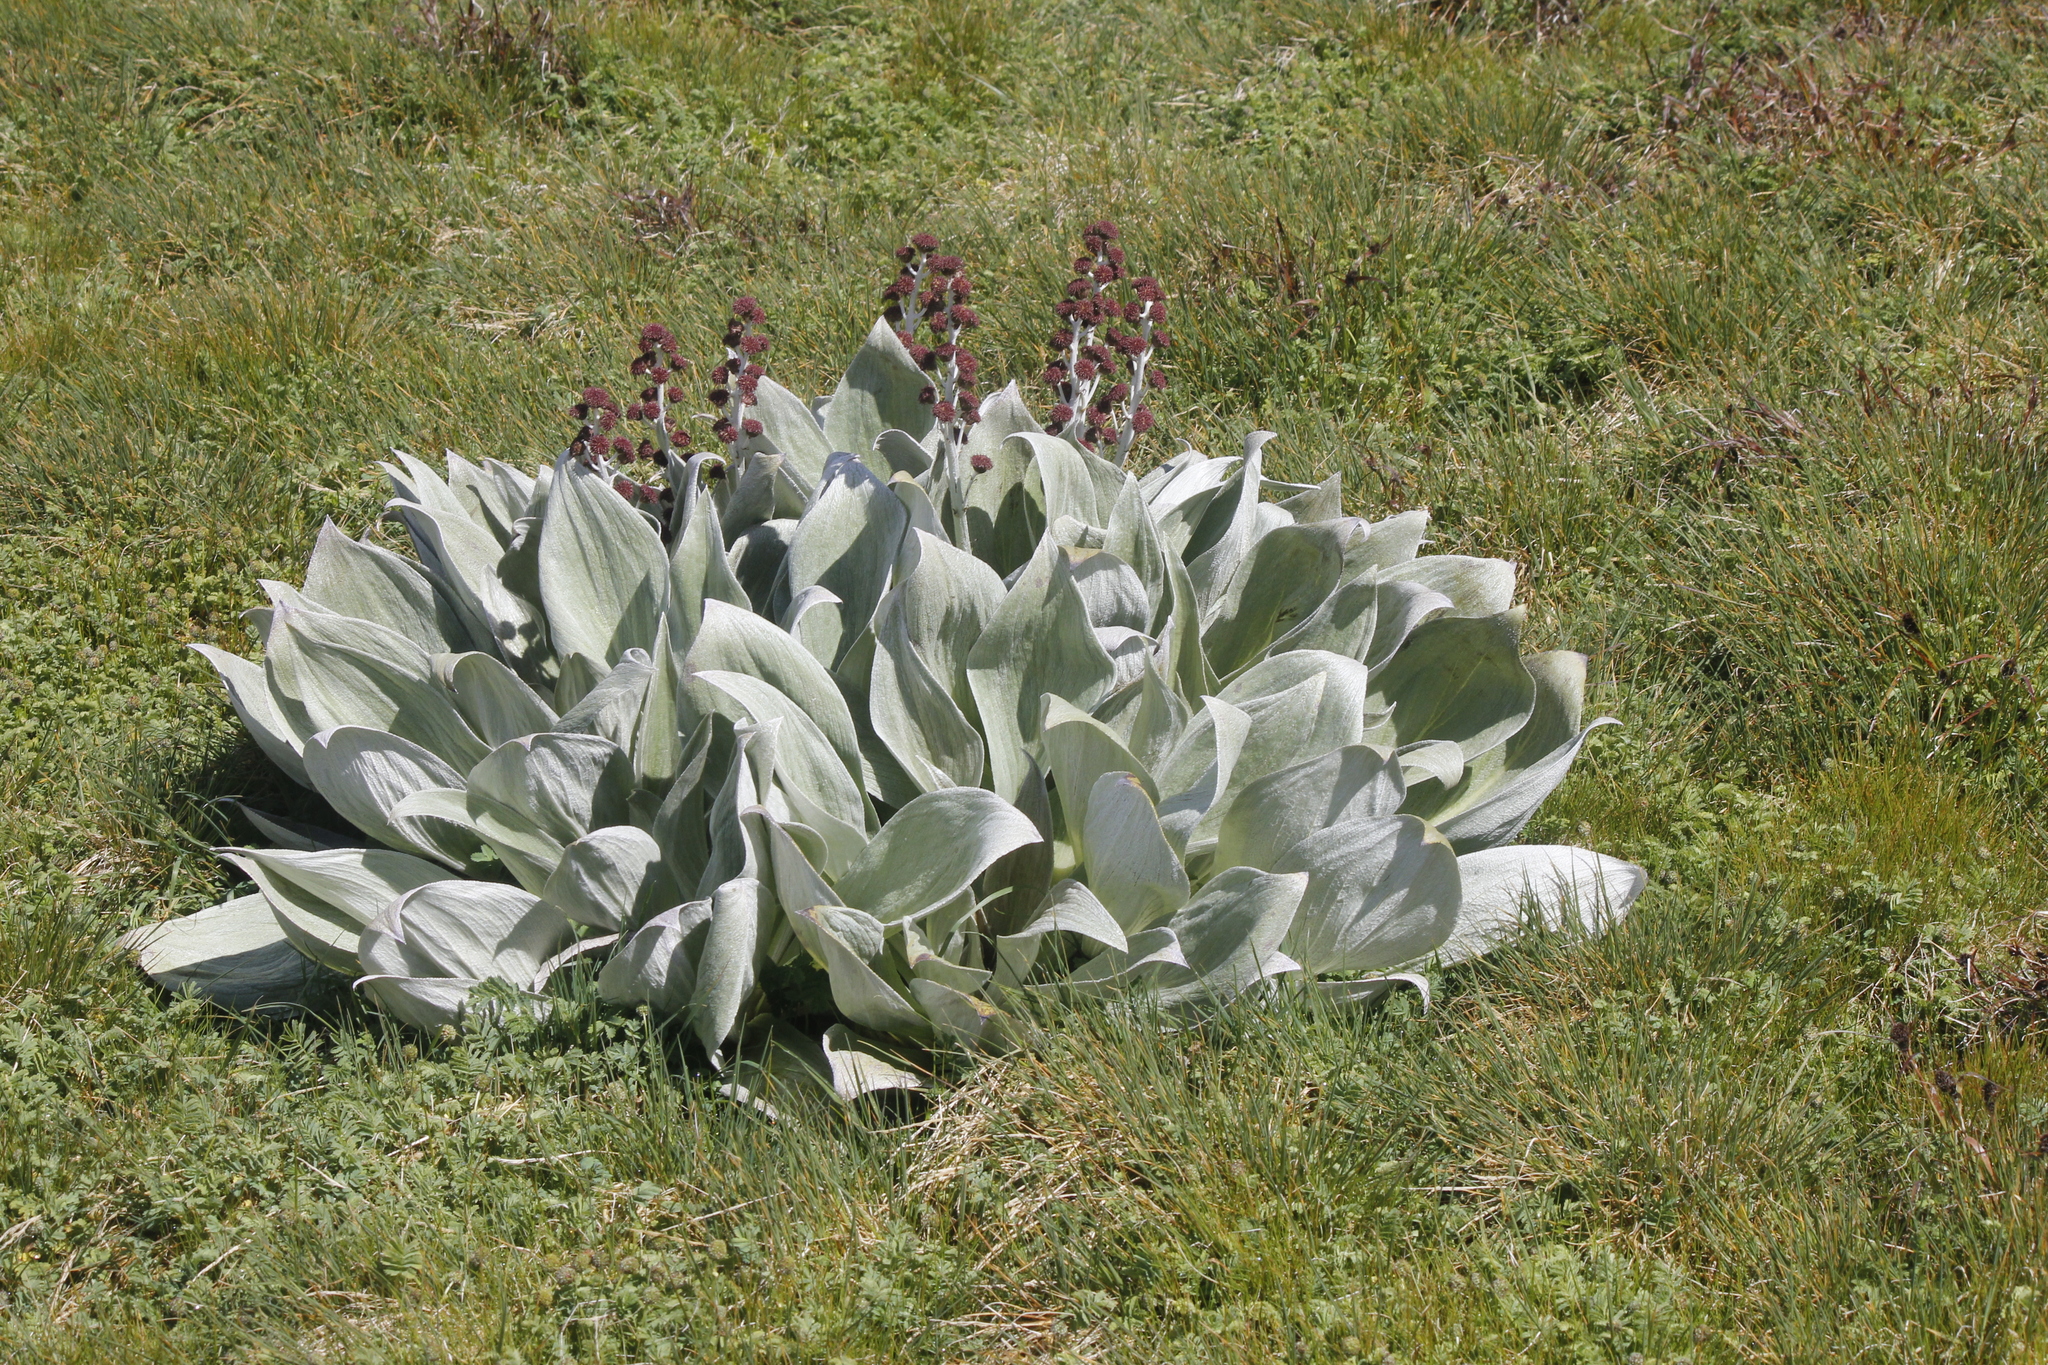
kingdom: Plantae
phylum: Tracheophyta
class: Magnoliopsida
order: Asterales
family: Asteraceae
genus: Pleurophyllum
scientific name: Pleurophyllum hookeri
